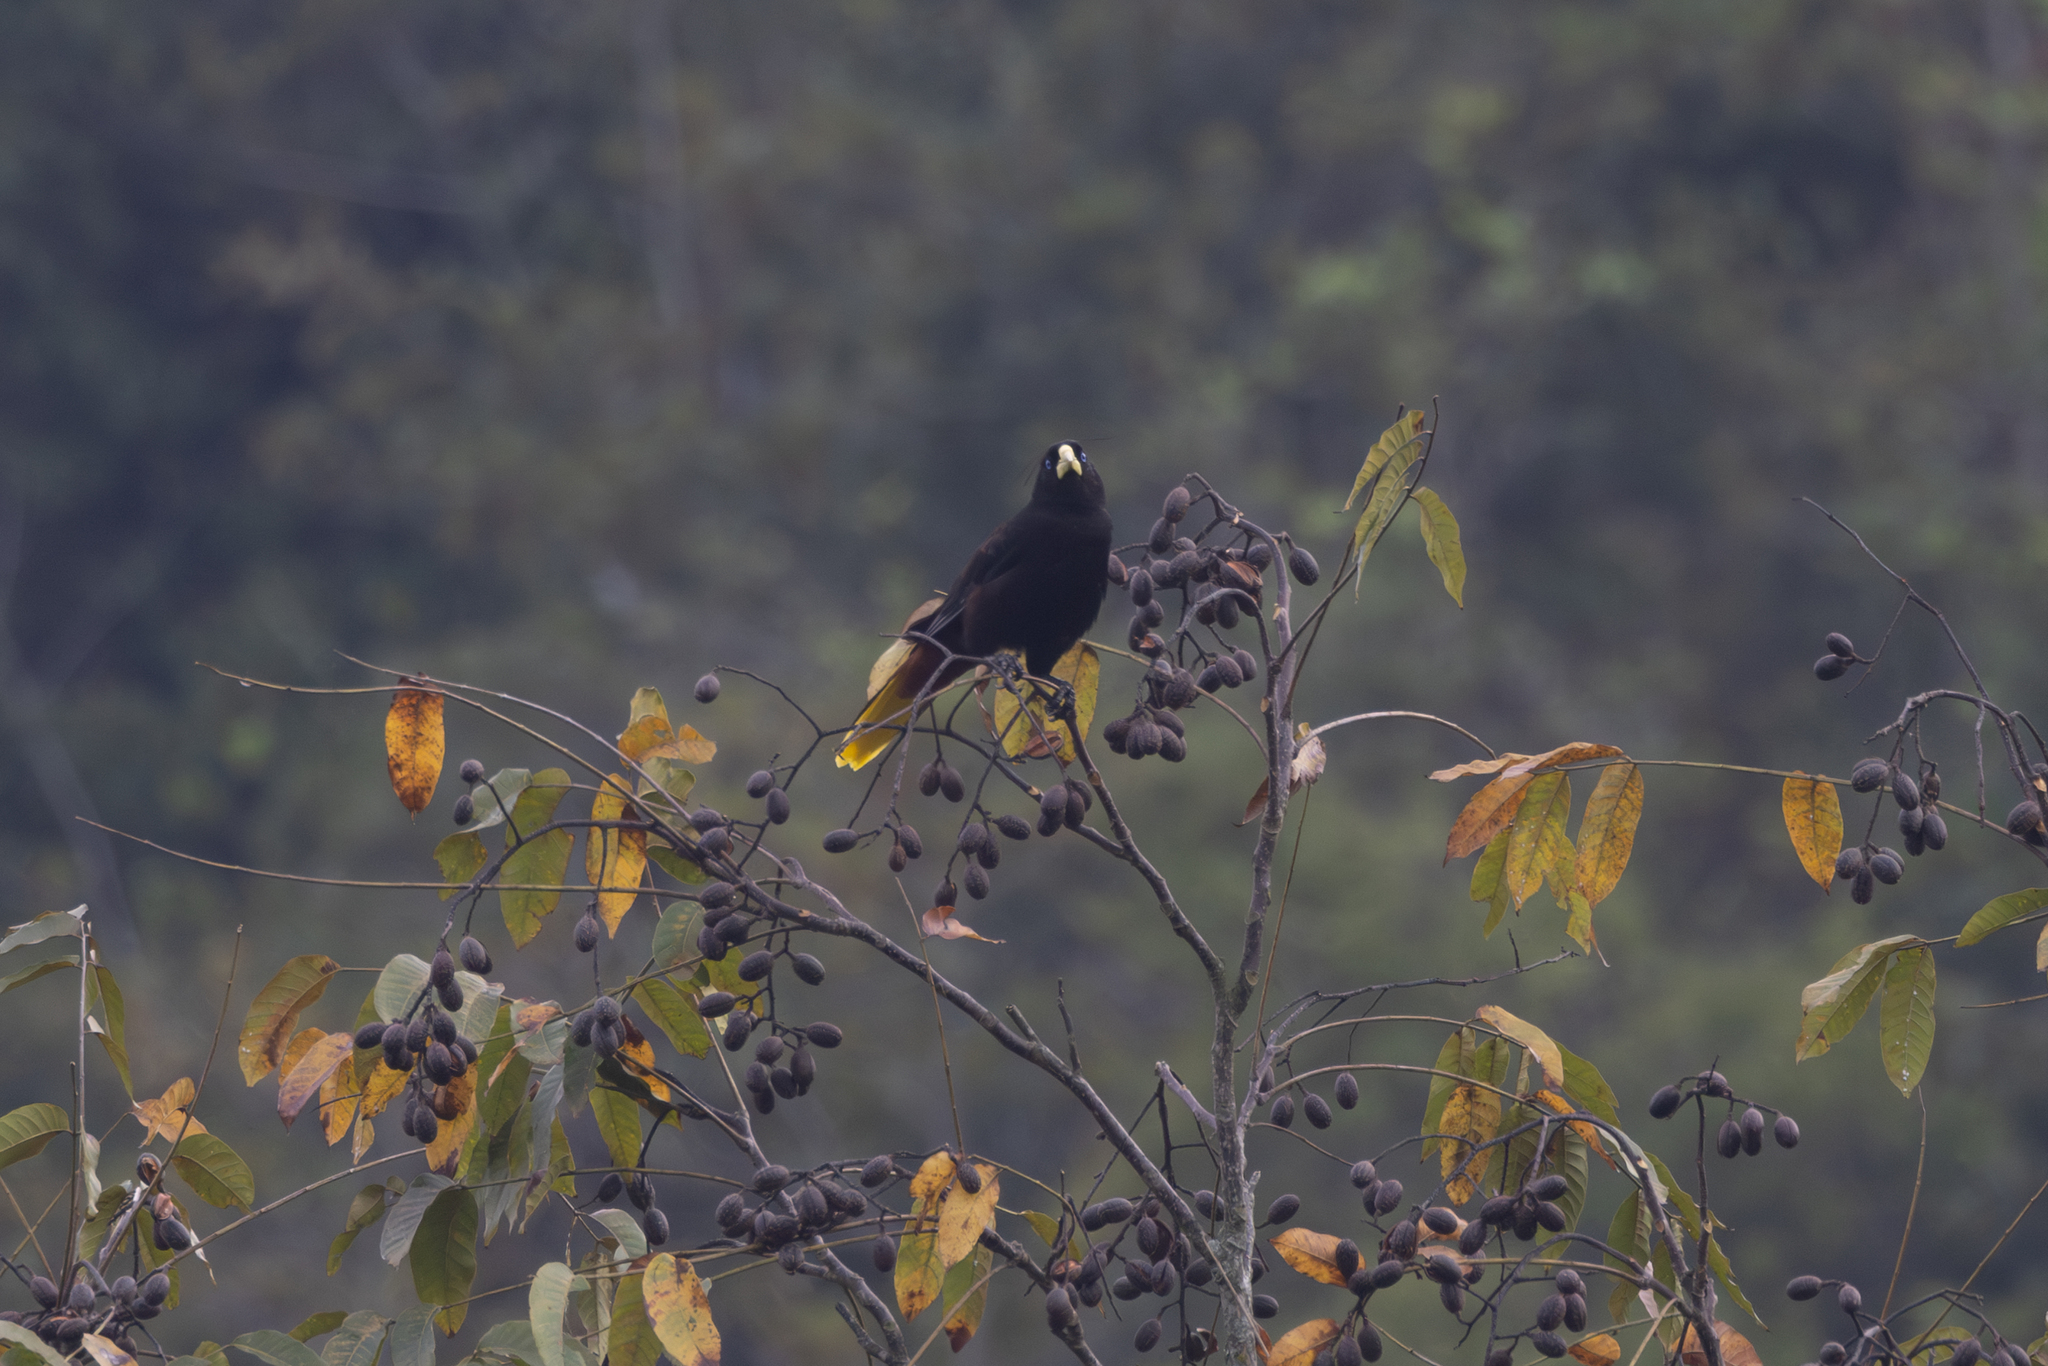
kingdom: Animalia
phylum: Chordata
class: Aves
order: Passeriformes
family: Icteridae
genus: Psarocolius
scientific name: Psarocolius decumanus
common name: Crested oropendola
